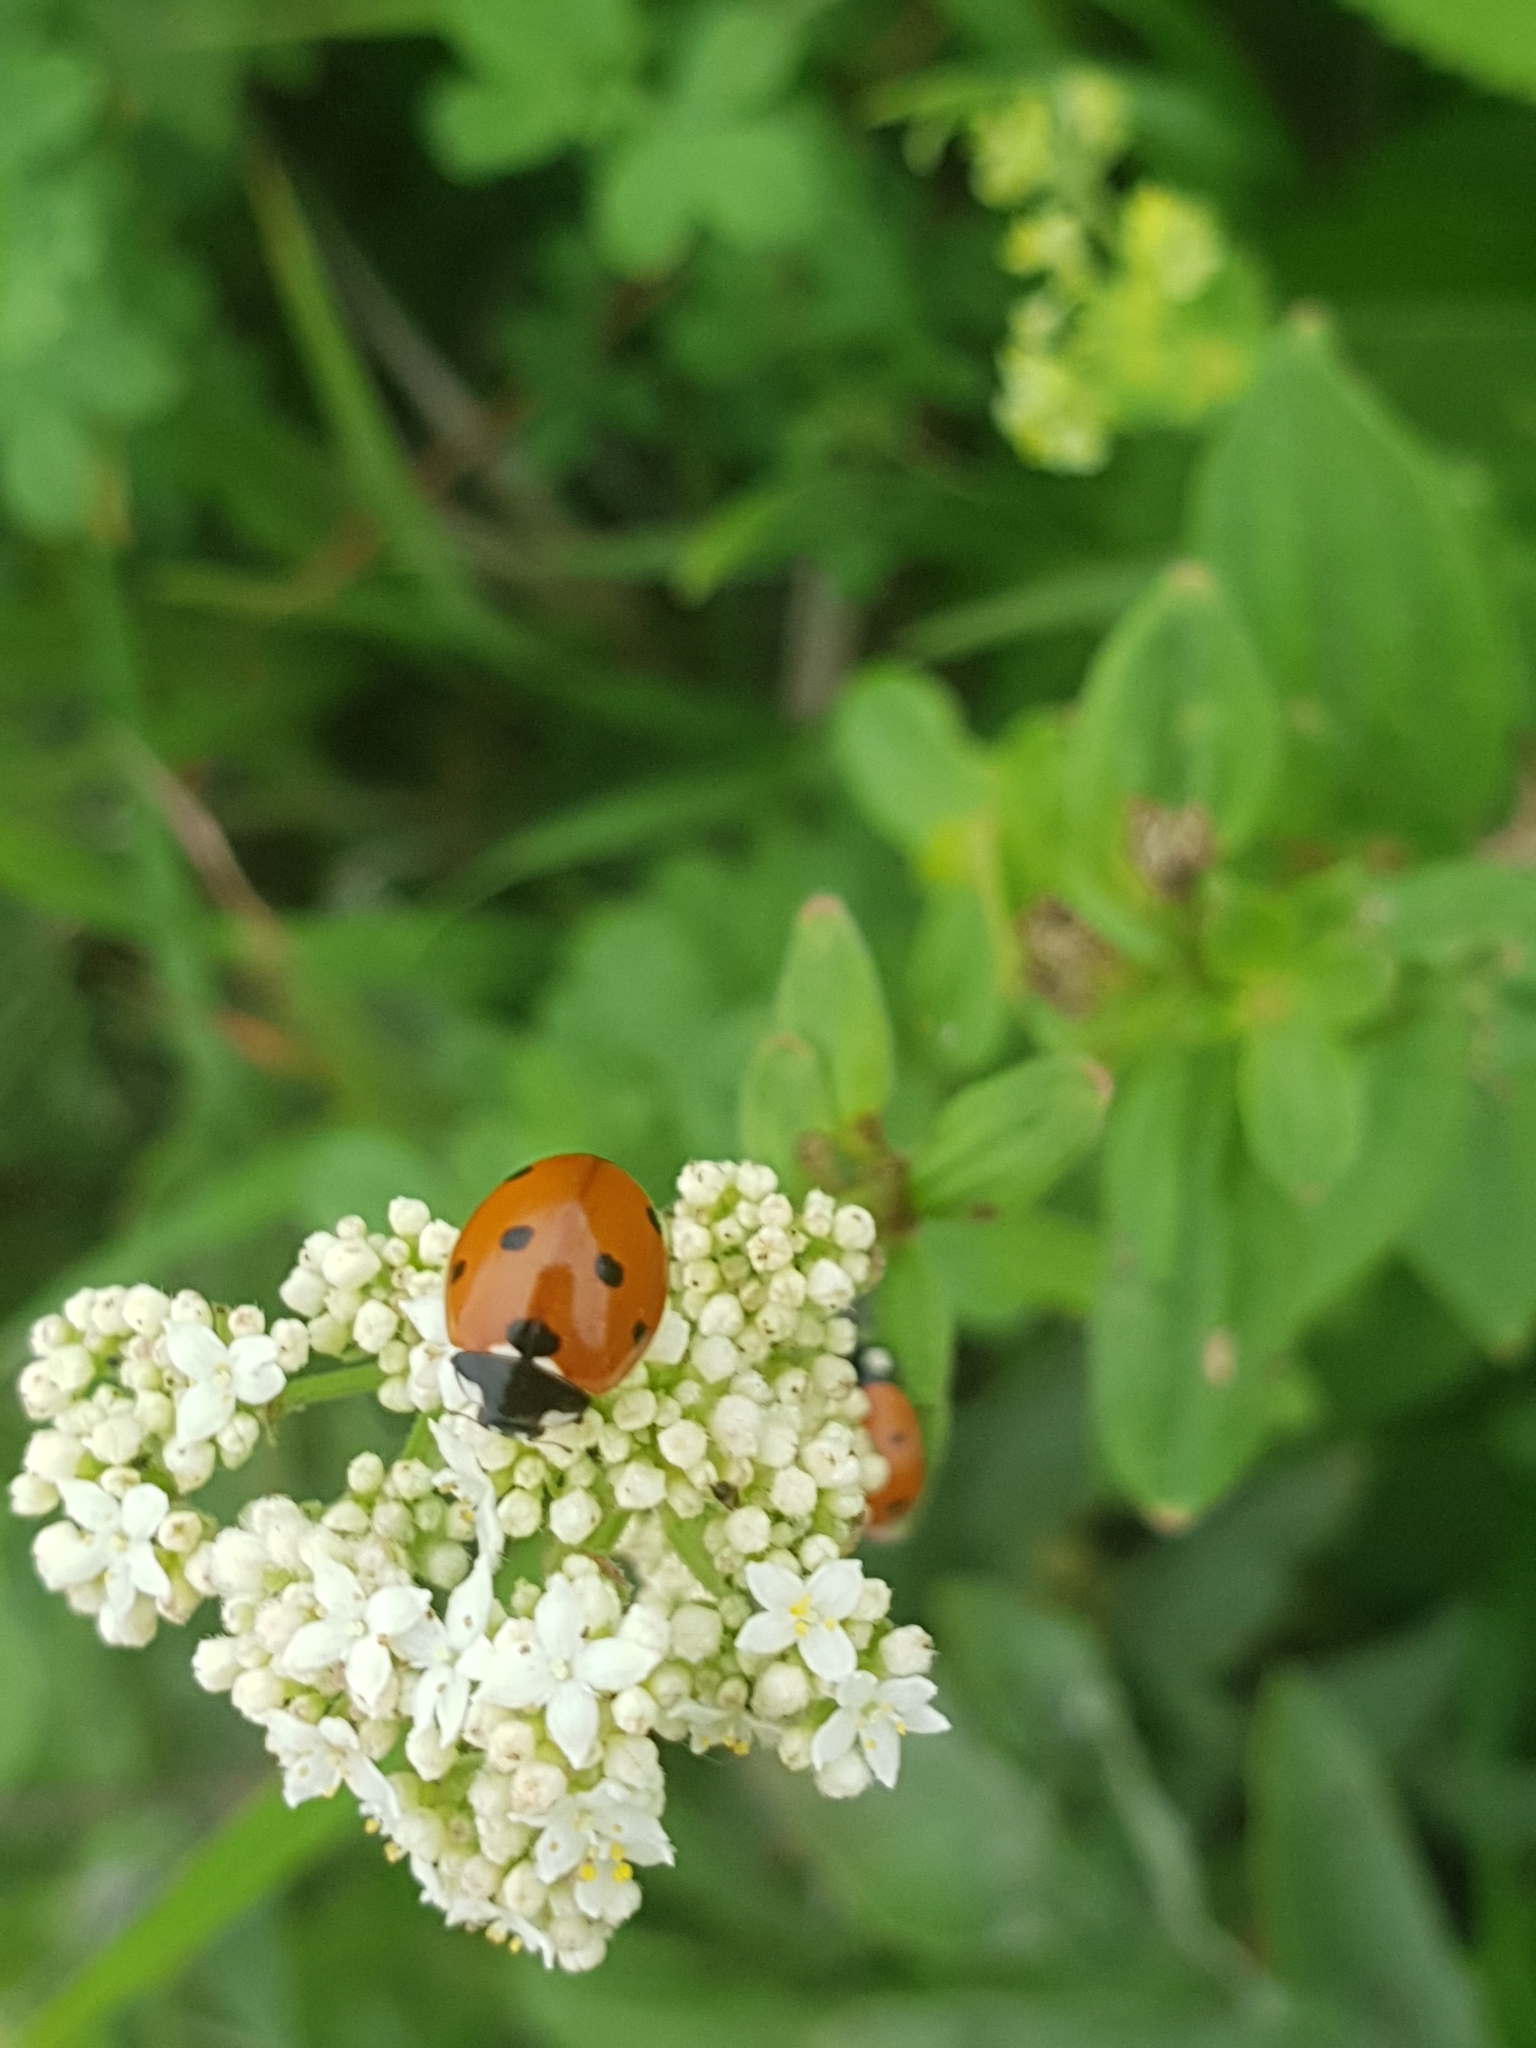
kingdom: Animalia
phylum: Arthropoda
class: Insecta
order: Coleoptera
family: Coccinellidae
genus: Coccinella
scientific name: Coccinella septempunctata
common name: Sevenspotted lady beetle
